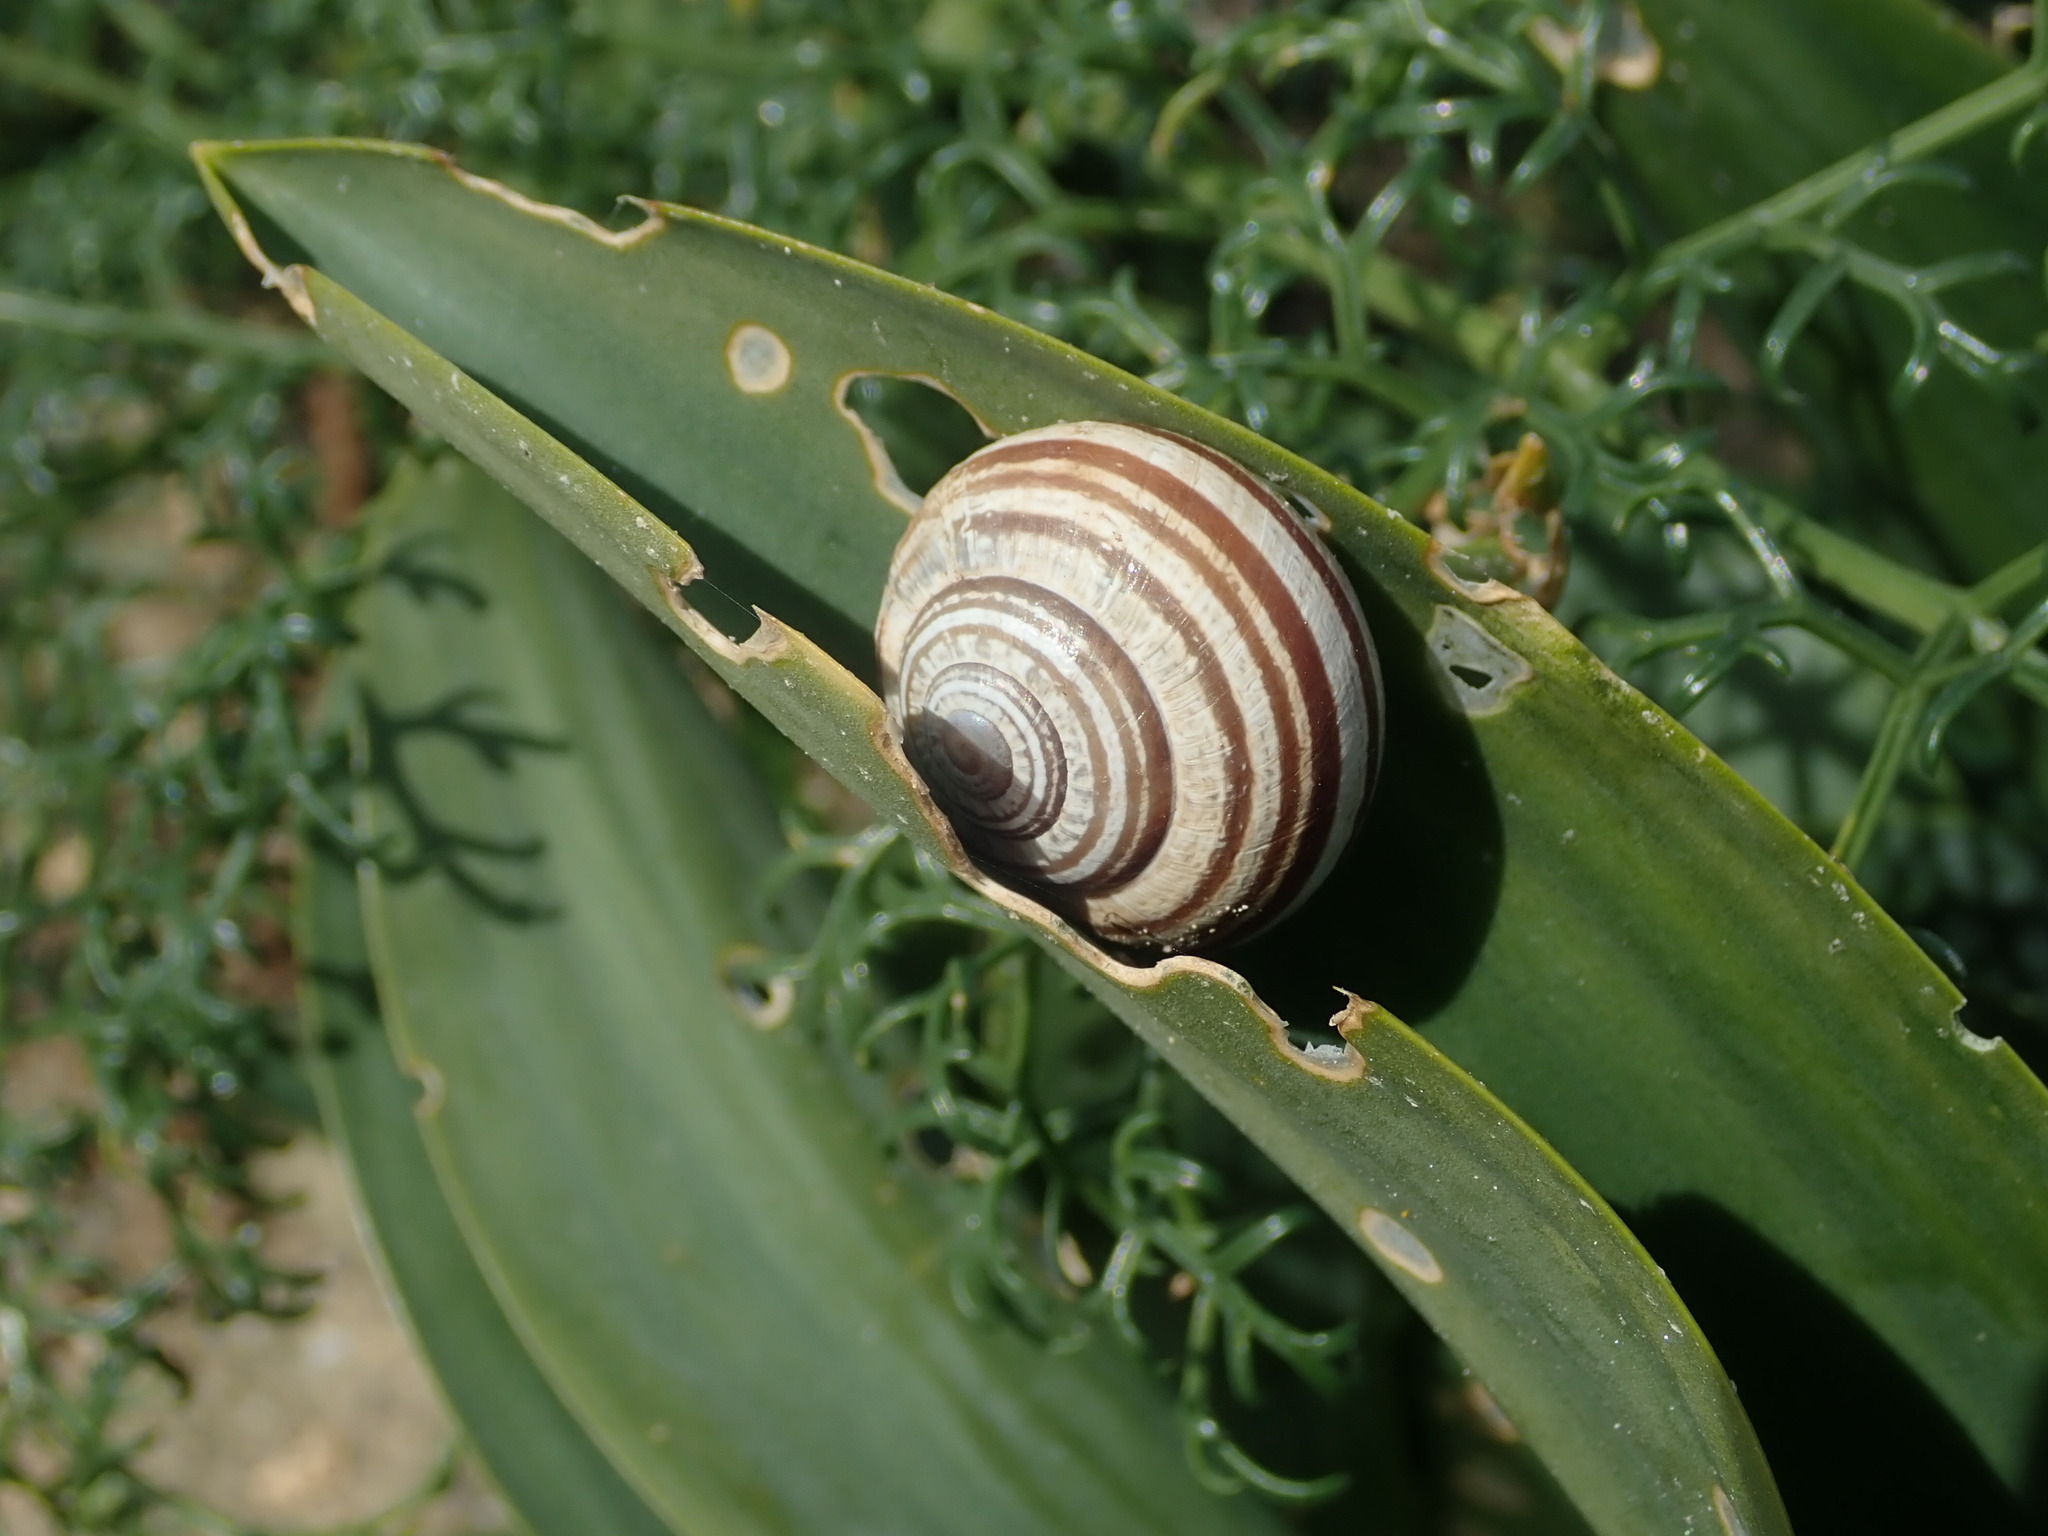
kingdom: Animalia
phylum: Mollusca
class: Gastropoda
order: Stylommatophora
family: Helicidae
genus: Eobania
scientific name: Eobania vermiculata
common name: Chocolateband snail
